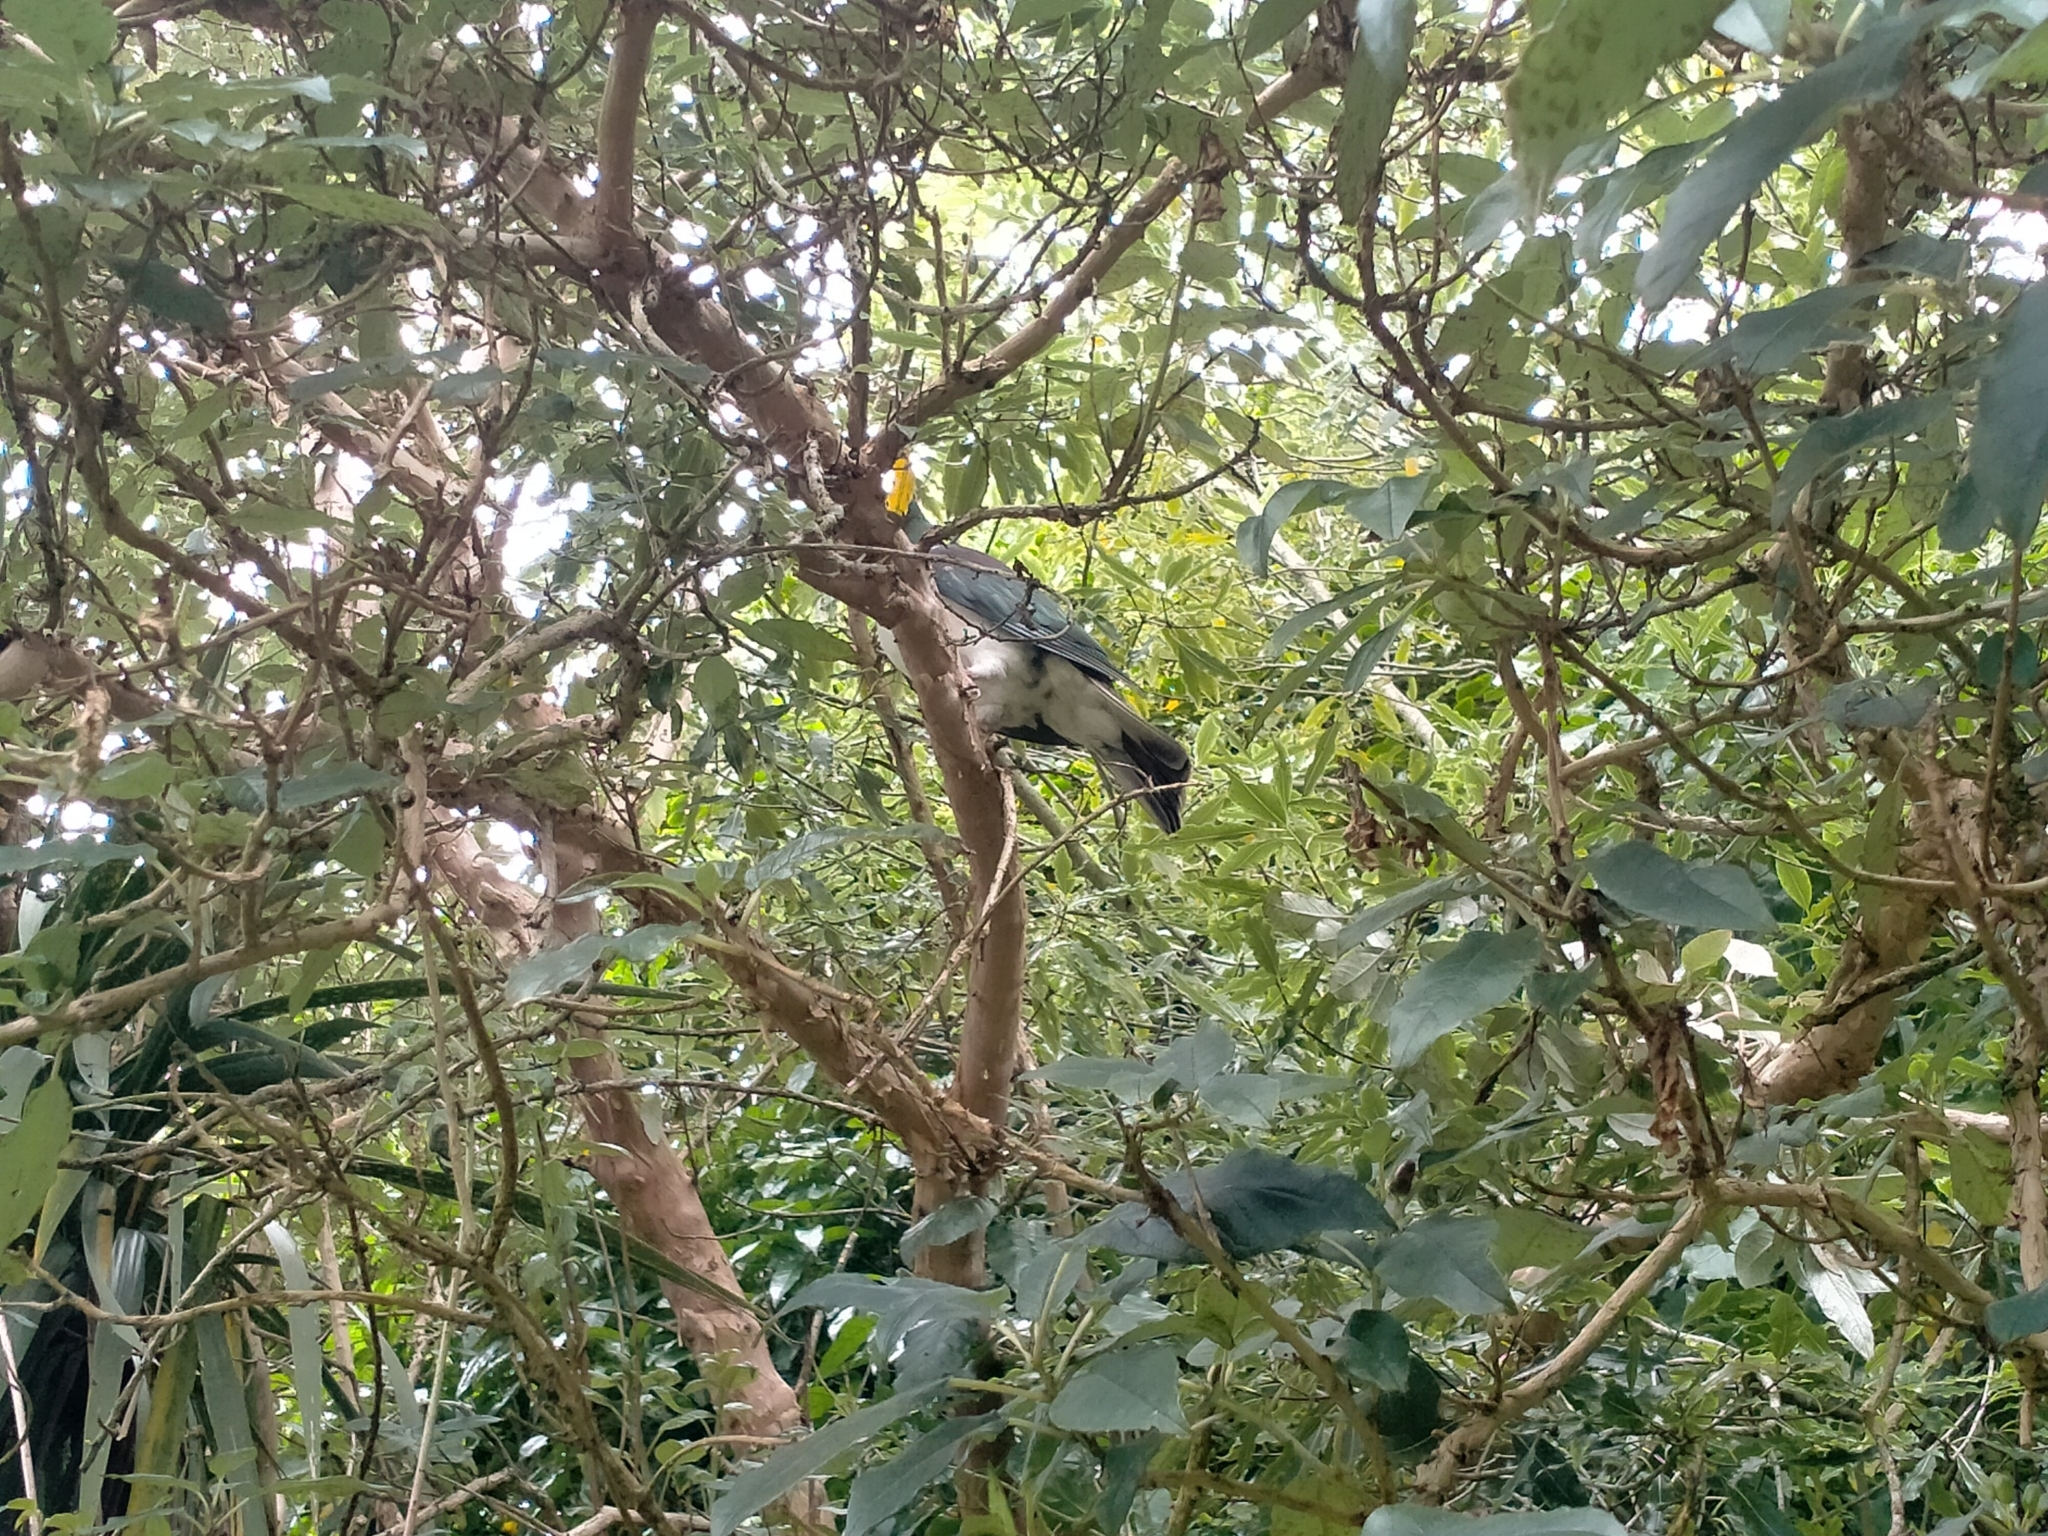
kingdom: Animalia
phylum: Chordata
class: Aves
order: Columbiformes
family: Columbidae
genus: Hemiphaga
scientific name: Hemiphaga novaeseelandiae
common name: New zealand pigeon
